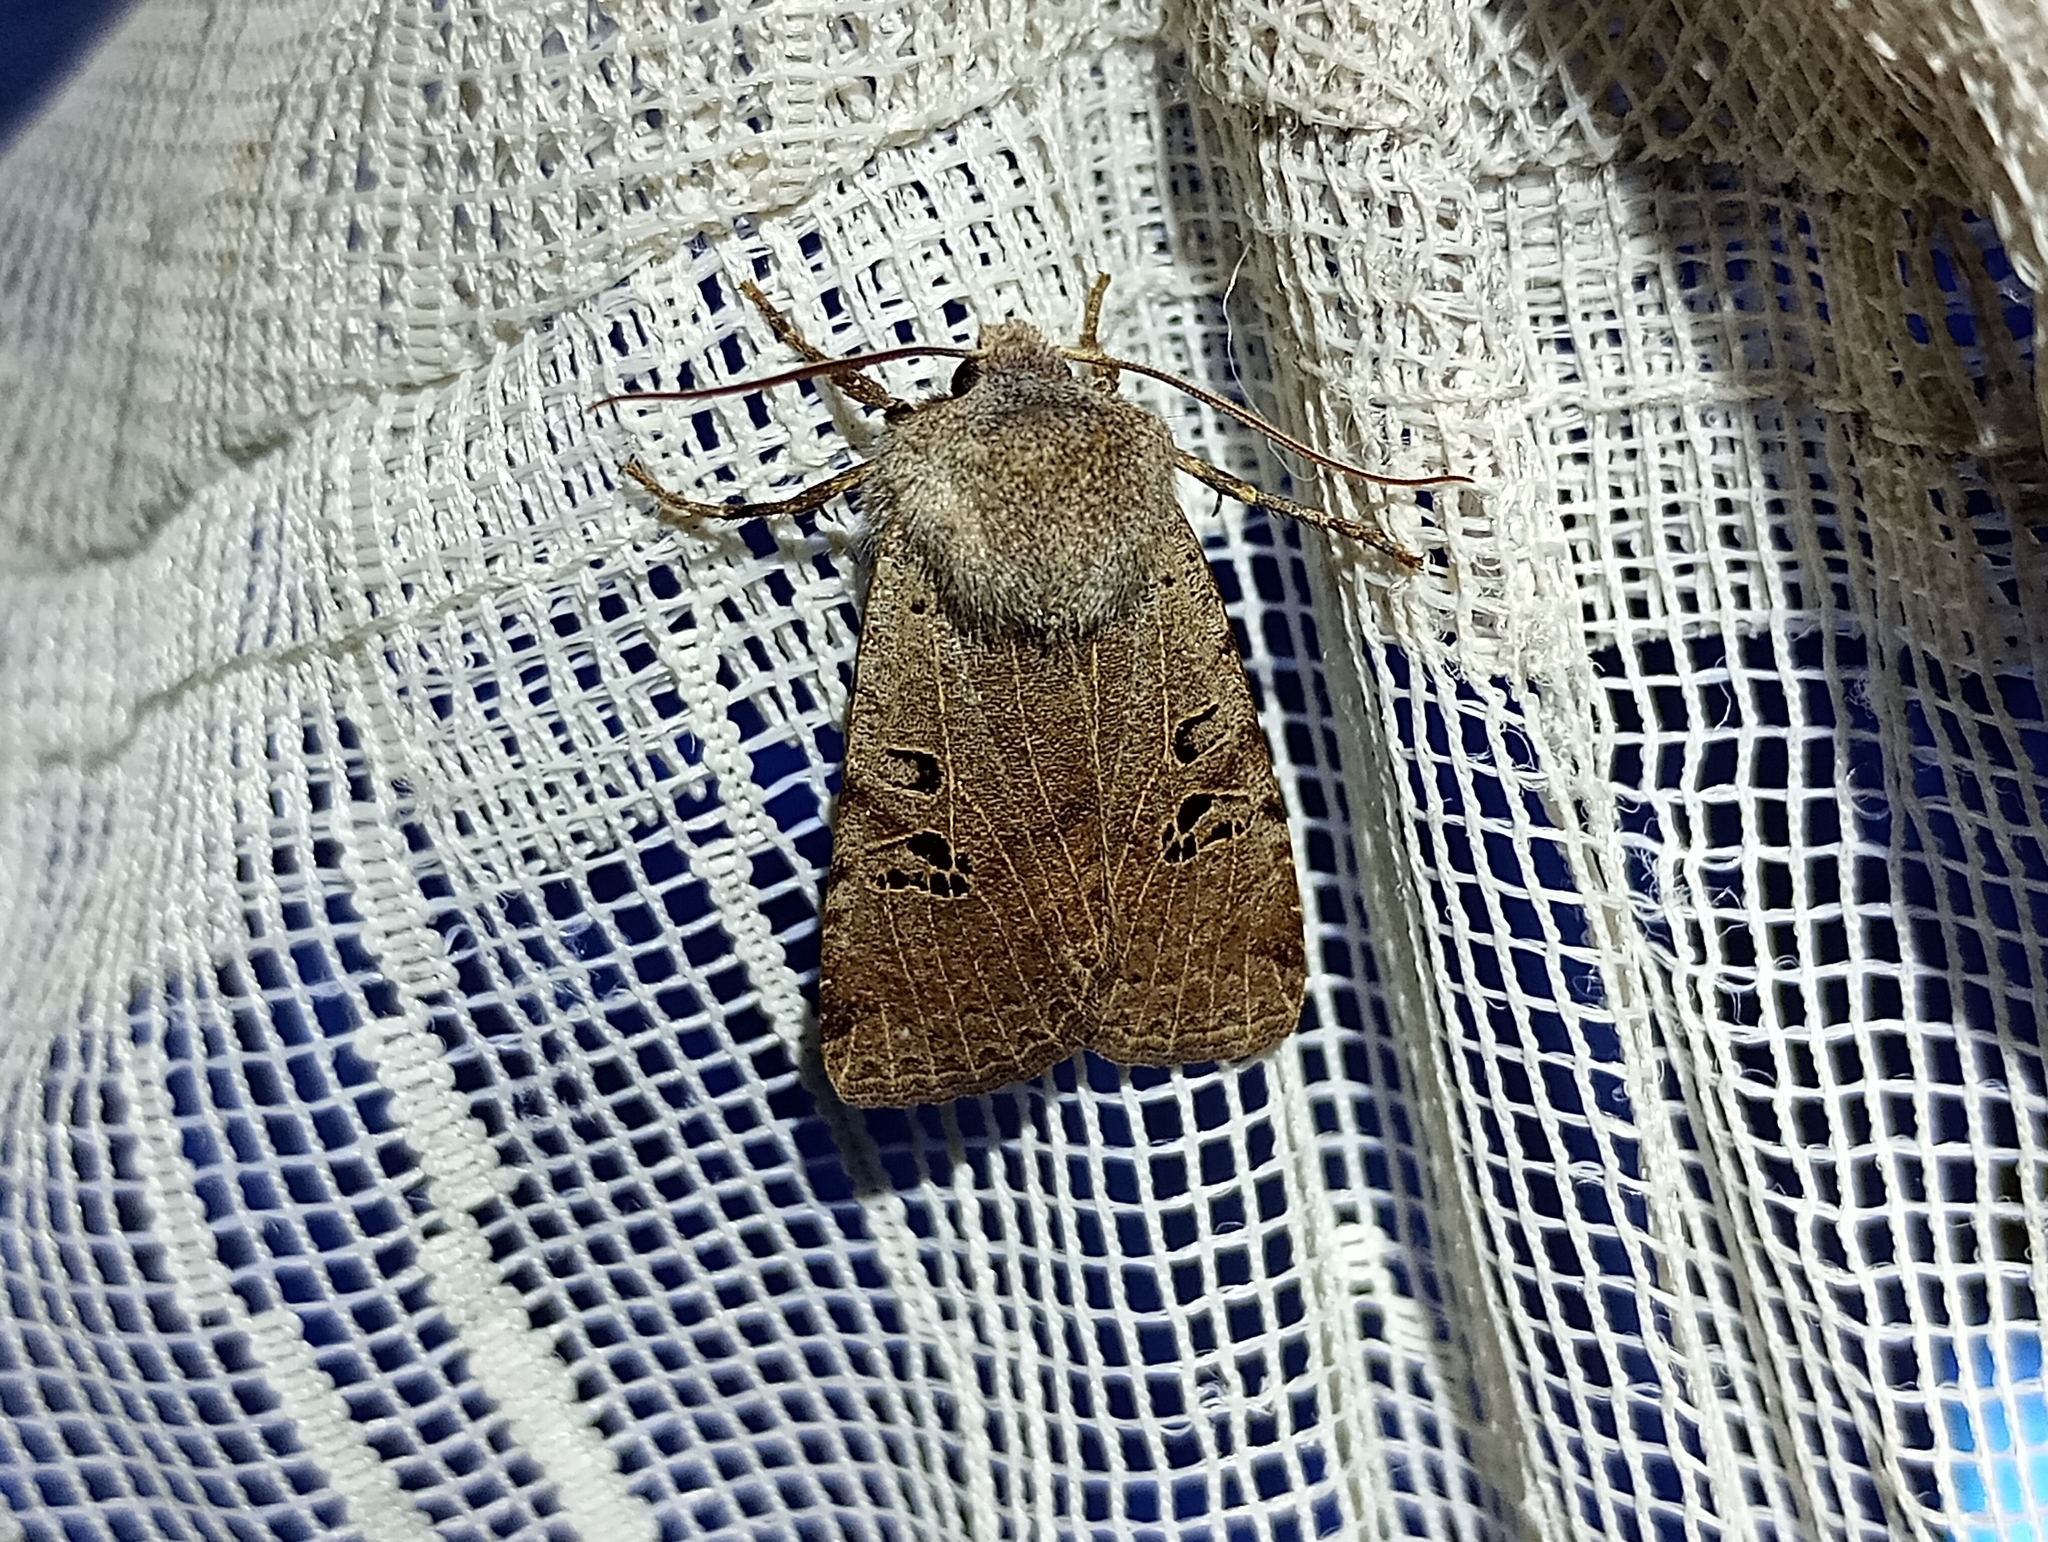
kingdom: Animalia
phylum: Arthropoda
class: Insecta
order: Lepidoptera
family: Noctuidae
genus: Conistra
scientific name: Conistra rubiginosa
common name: Black-spotted chestnut
